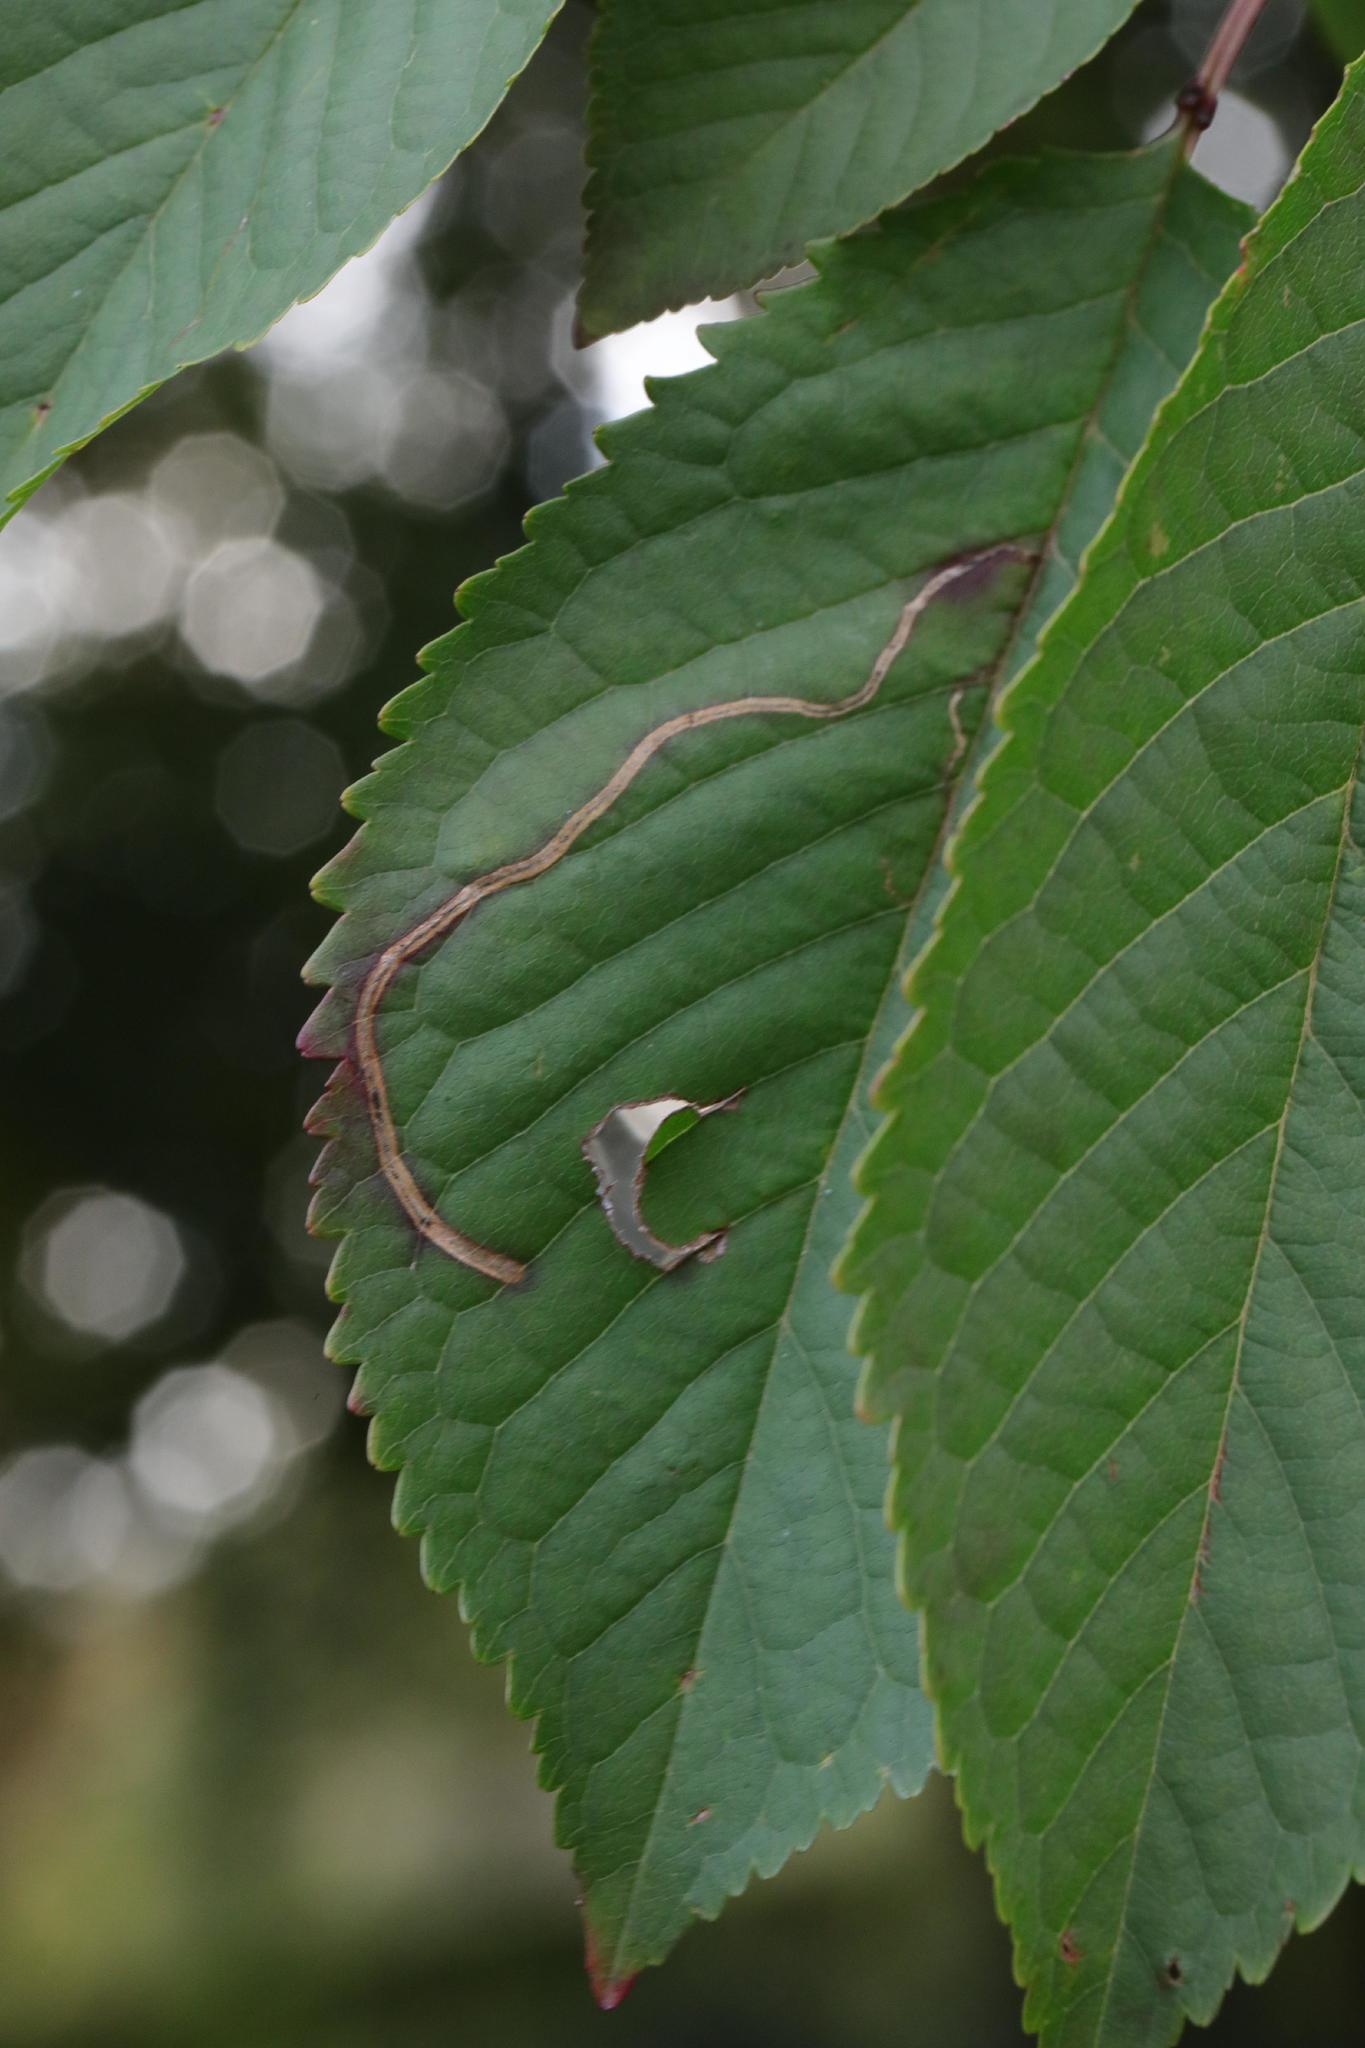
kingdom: Animalia
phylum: Arthropoda
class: Insecta
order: Lepidoptera
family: Lyonetiidae
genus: Lyonetia
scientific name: Lyonetia clerkella
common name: Apple leaf miner
